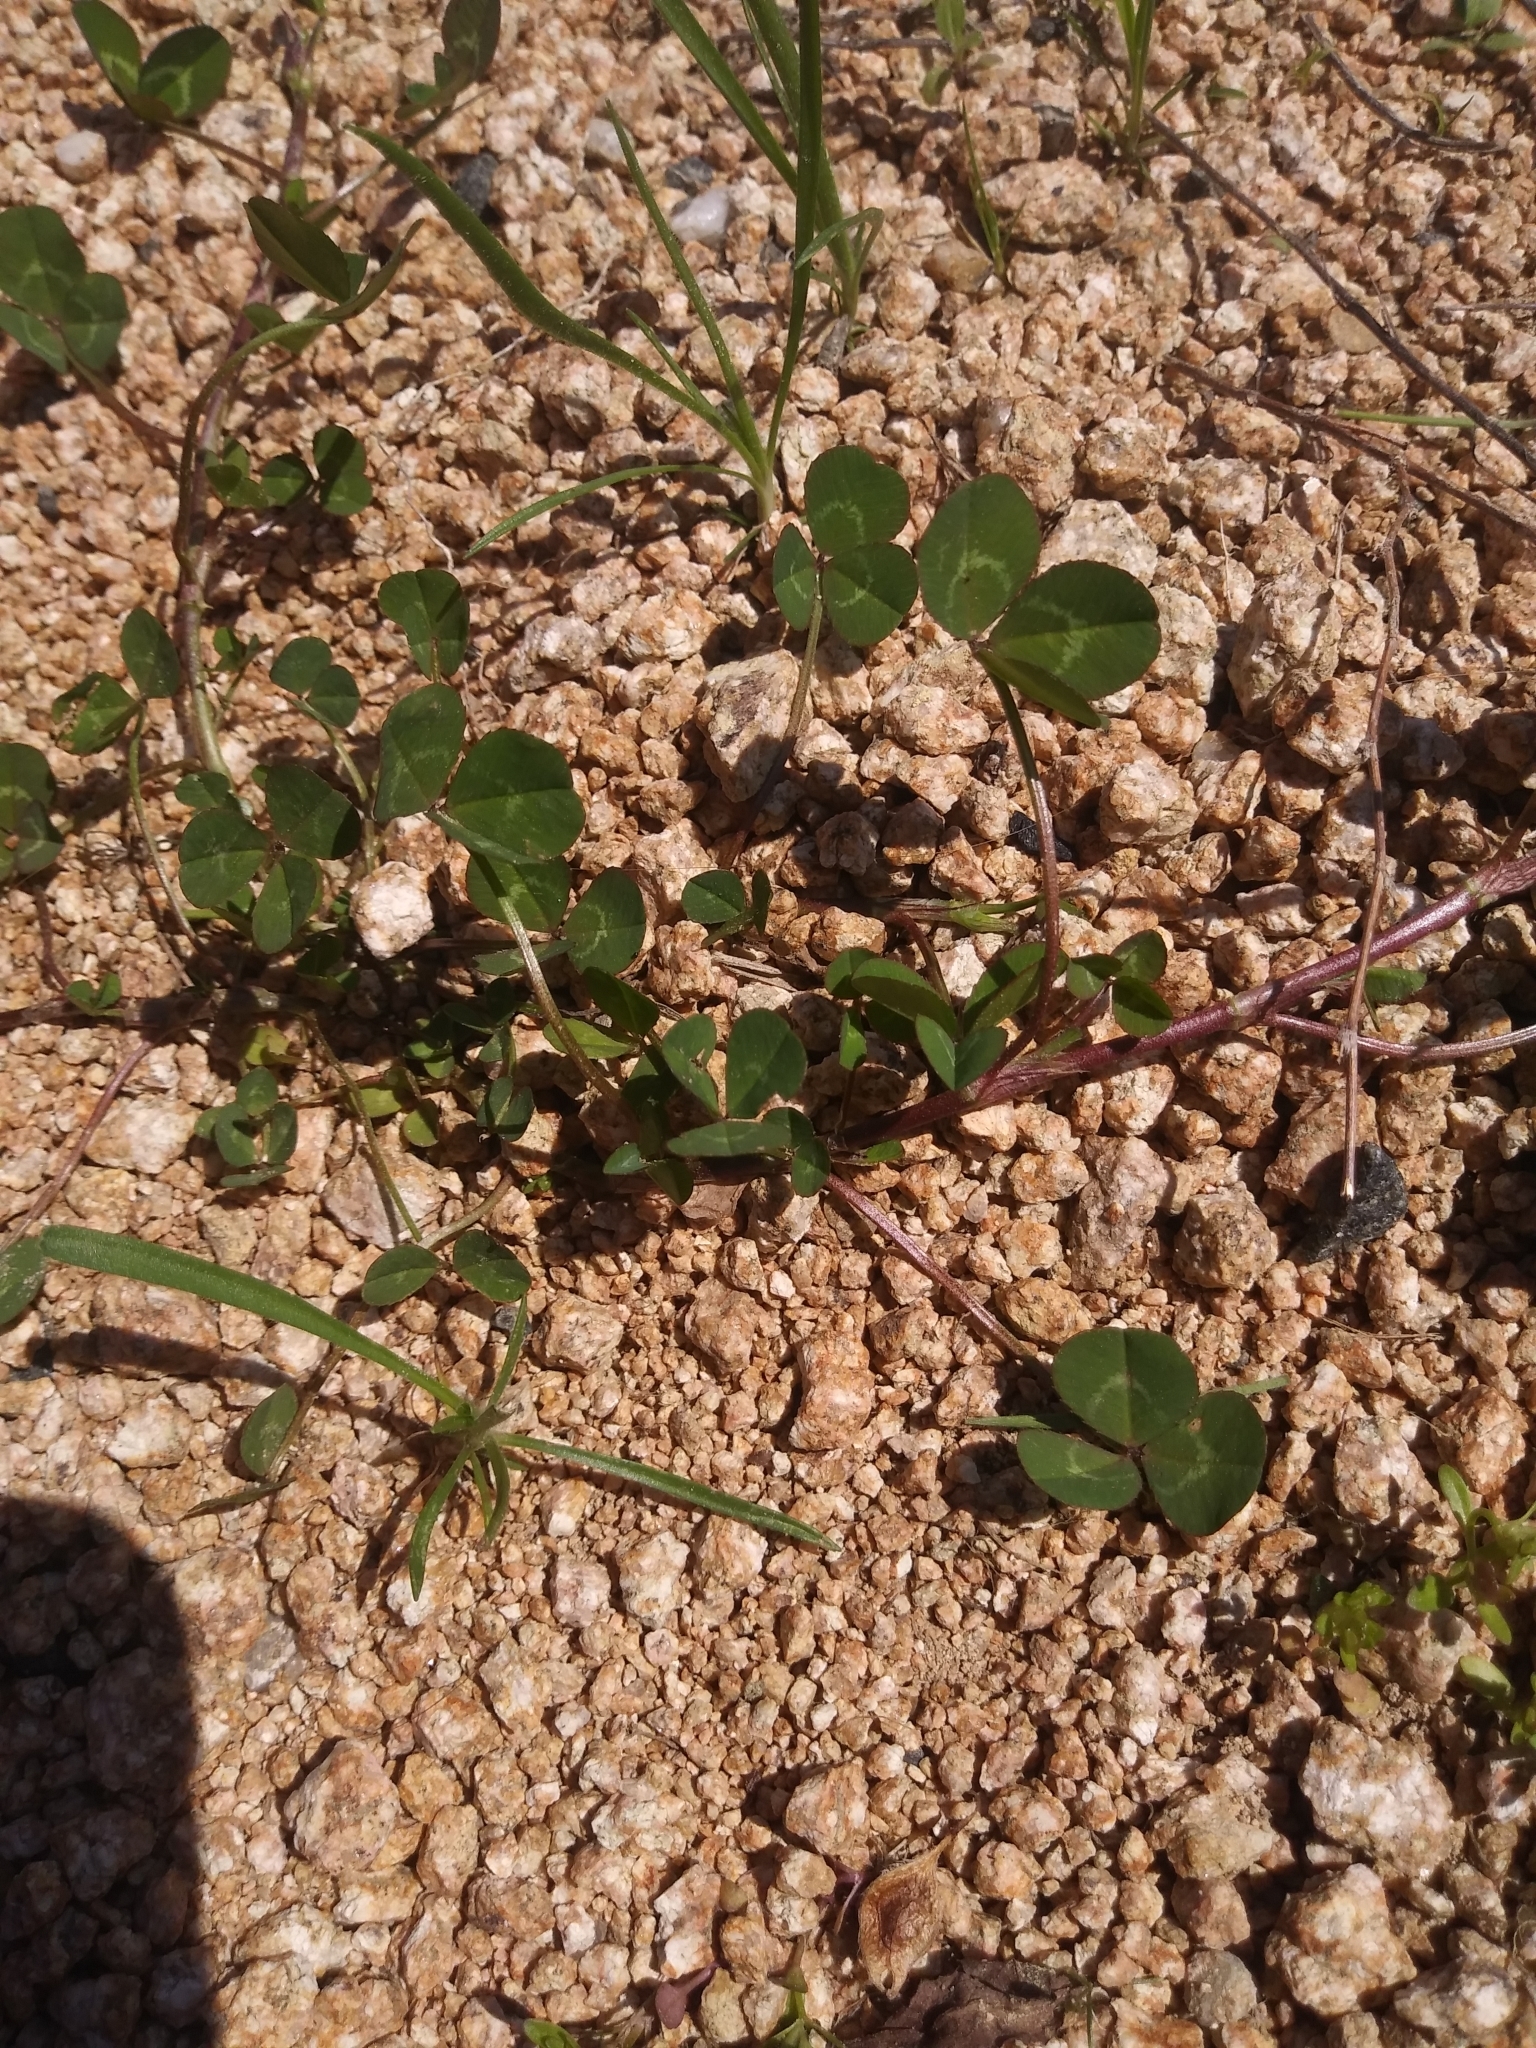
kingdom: Plantae
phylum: Tracheophyta
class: Magnoliopsida
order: Fabales
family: Fabaceae
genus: Trifolium
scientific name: Trifolium repens
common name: White clover
